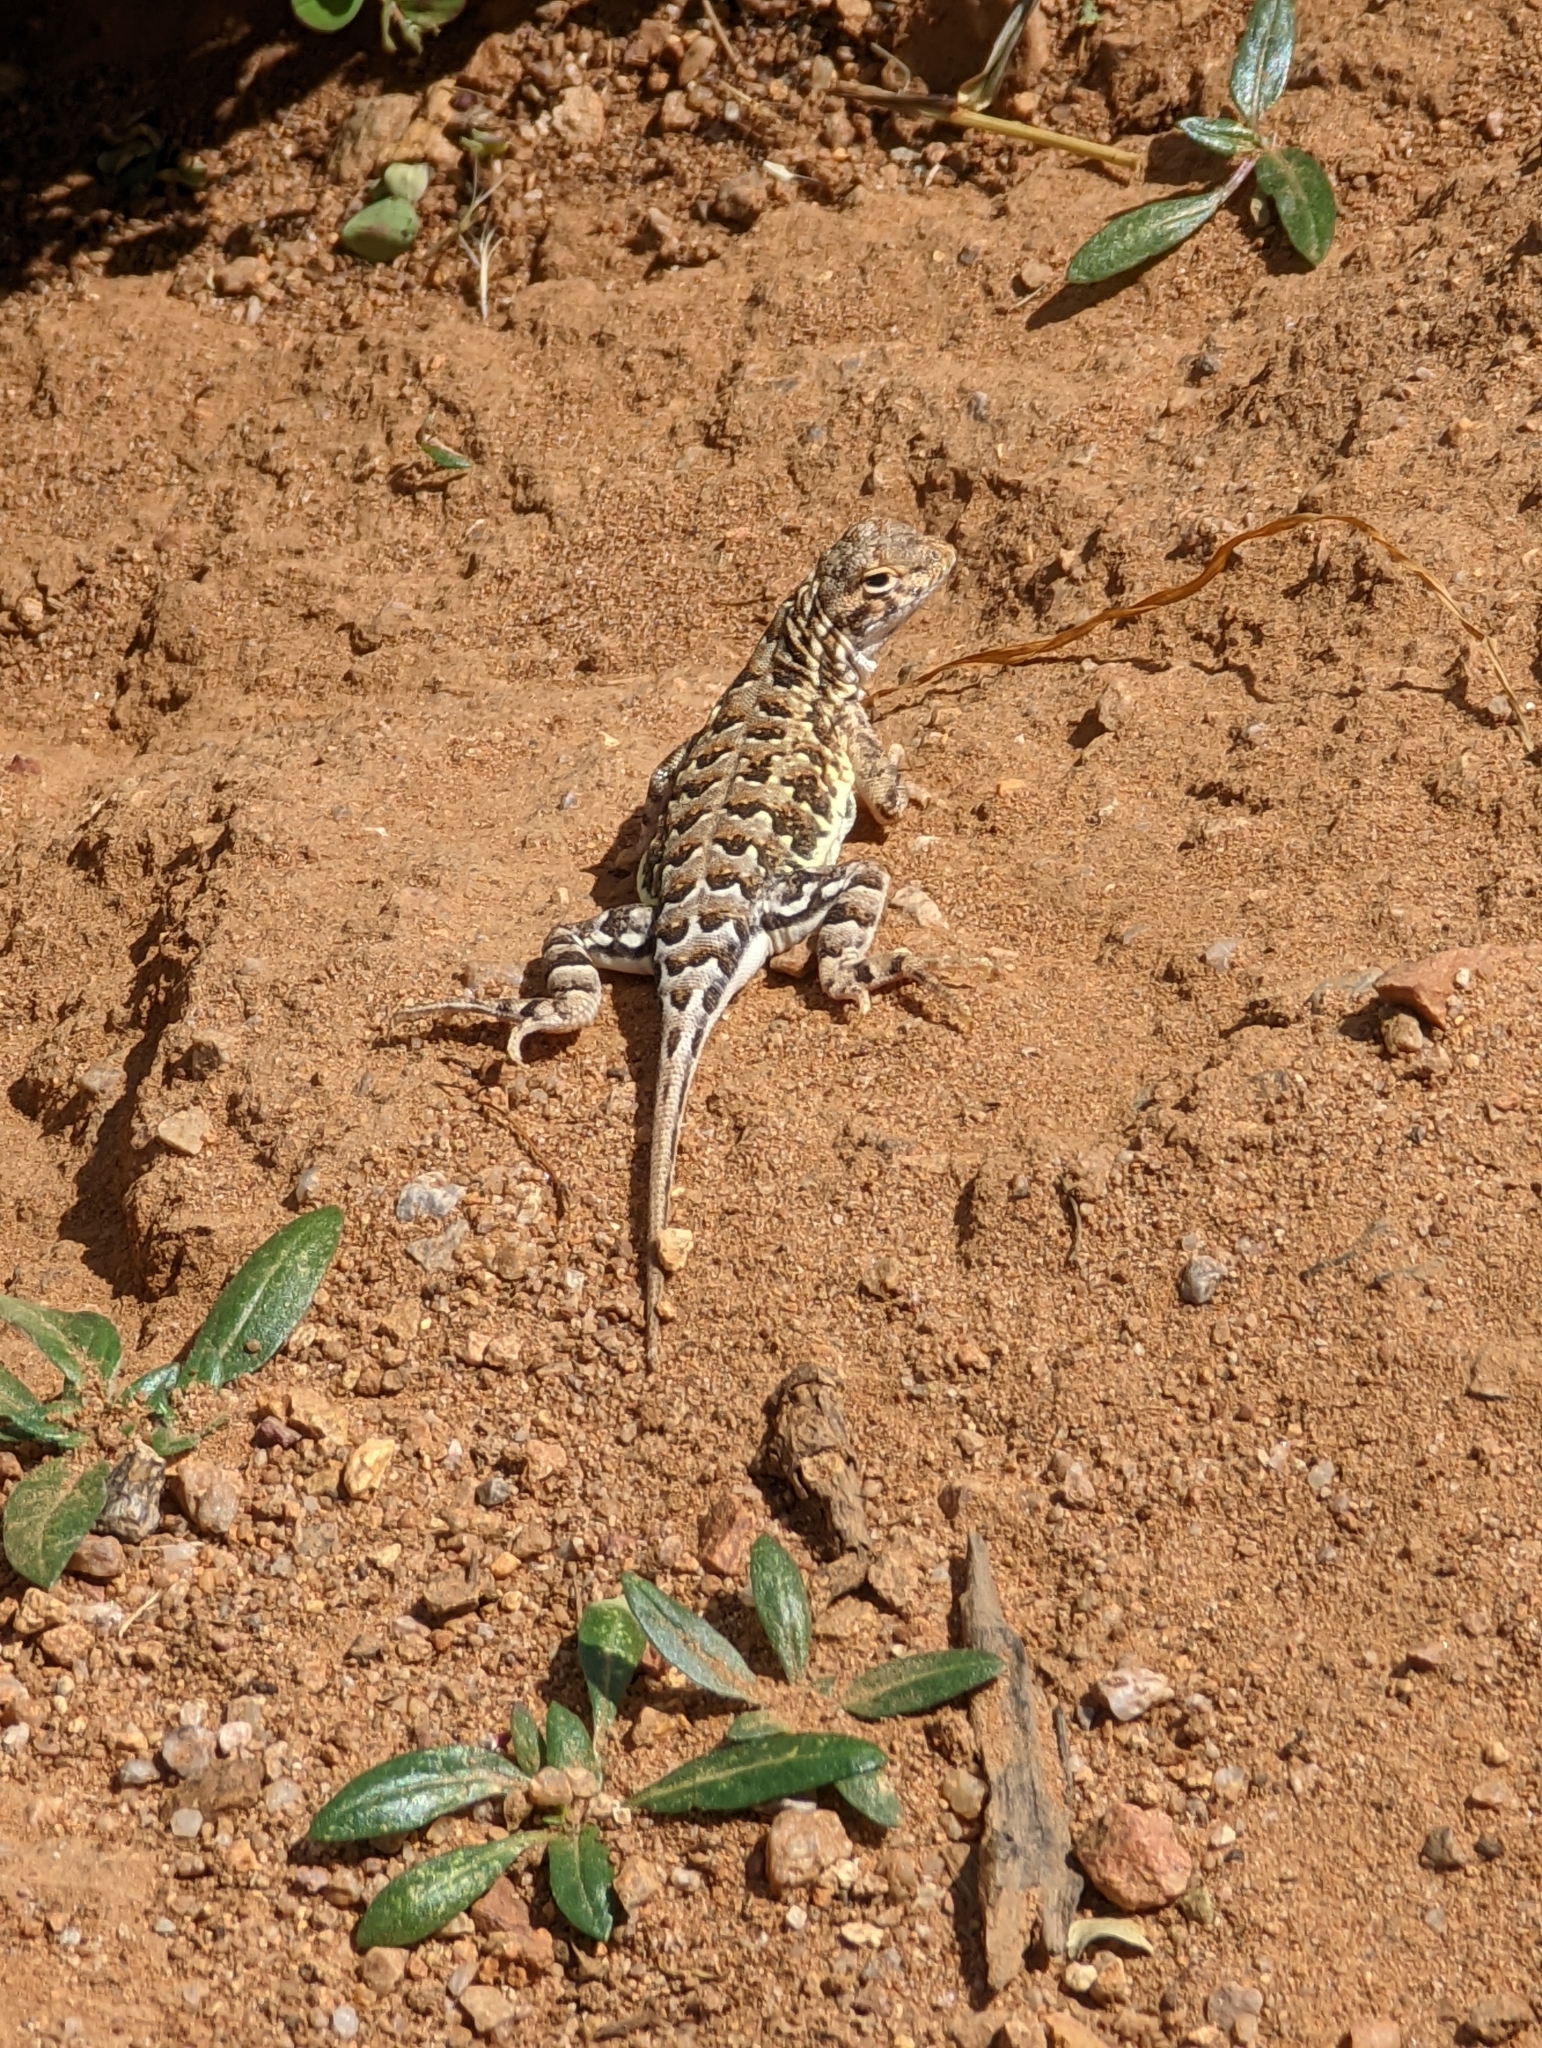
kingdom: Animalia
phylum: Chordata
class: Squamata
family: Phrynosomatidae
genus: Holbrookia
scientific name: Holbrookia elegans
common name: Elegant earless lizard
